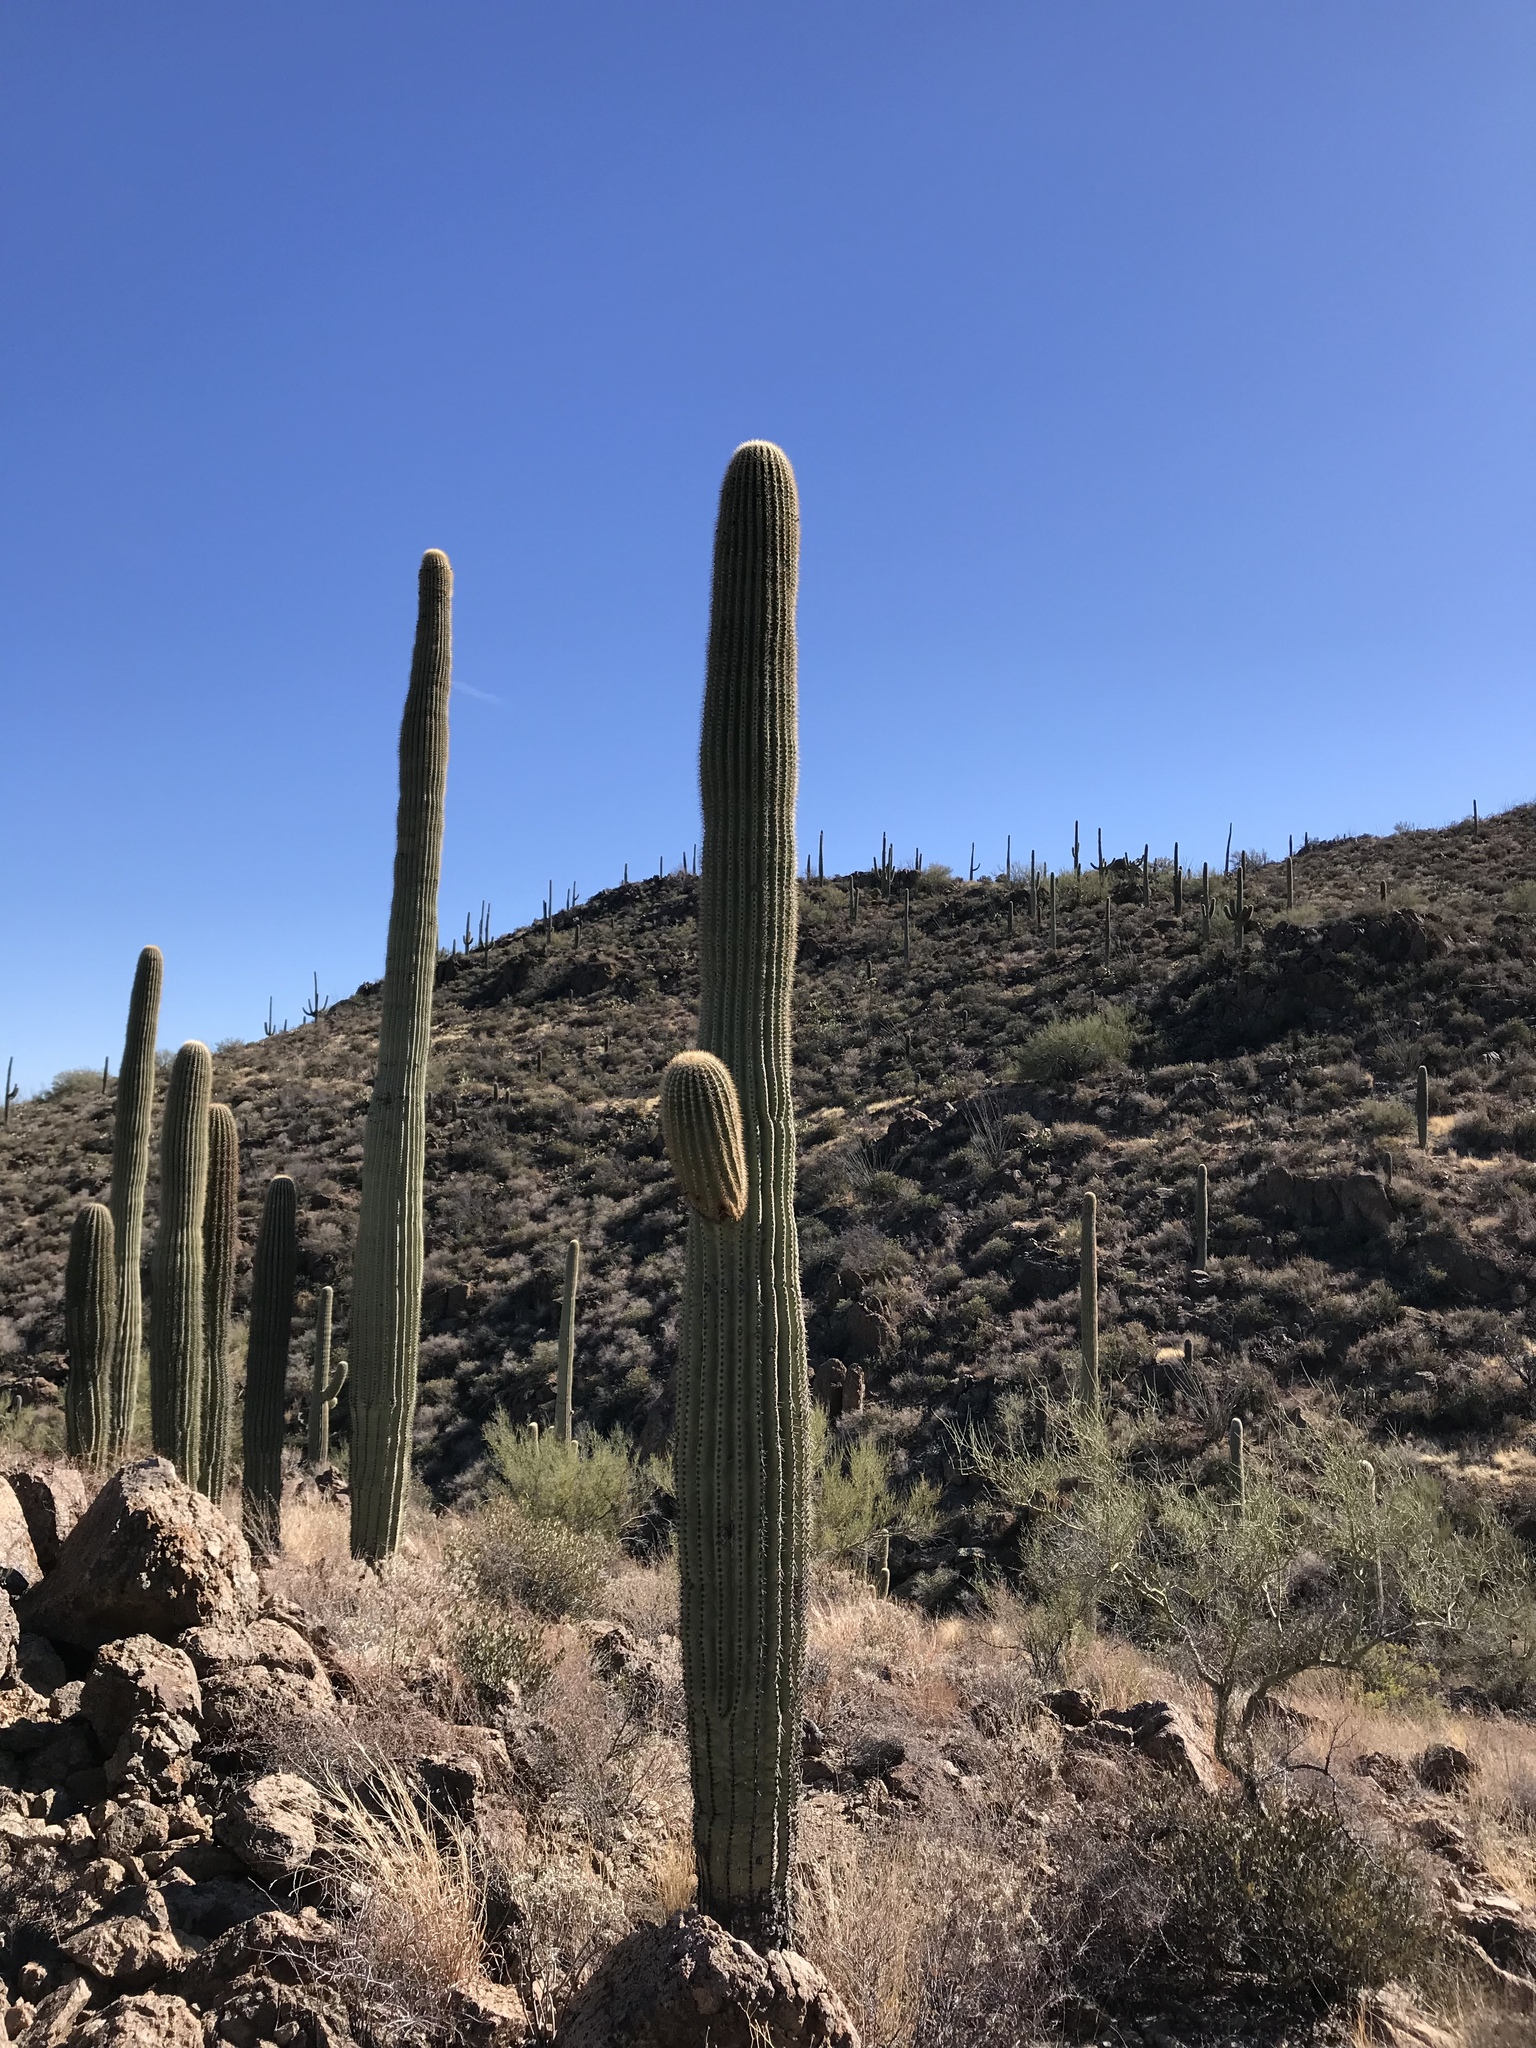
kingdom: Plantae
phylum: Tracheophyta
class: Magnoliopsida
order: Caryophyllales
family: Cactaceae
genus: Carnegiea
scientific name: Carnegiea gigantea
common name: Saguaro
